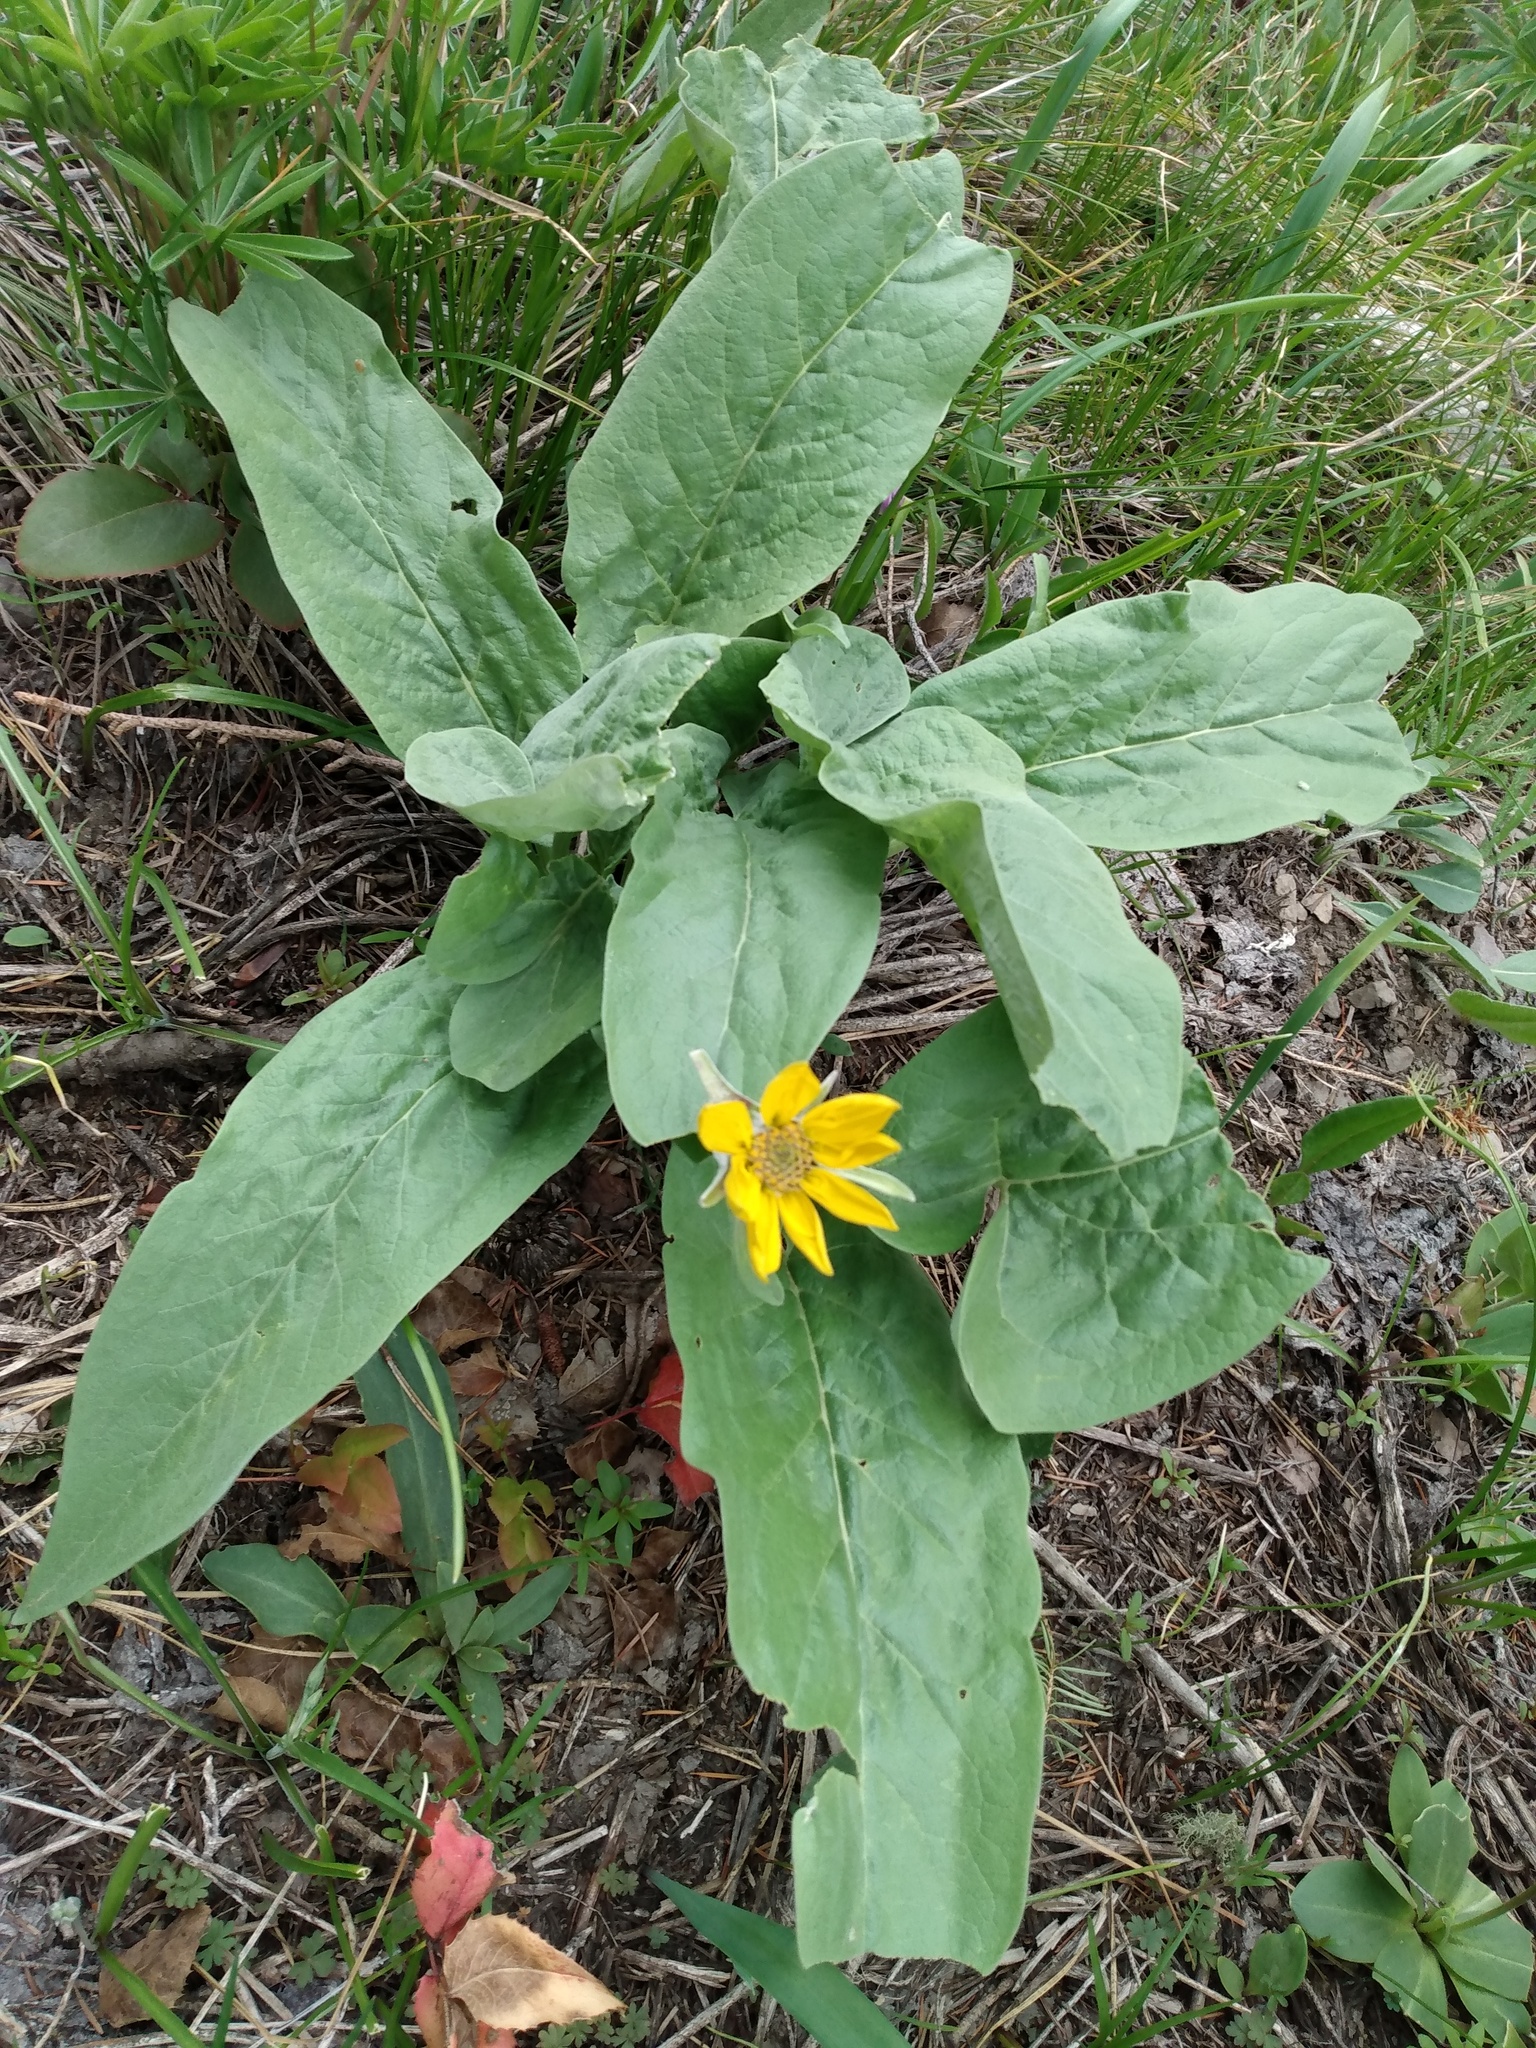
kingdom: Plantae
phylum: Tracheophyta
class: Magnoliopsida
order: Asterales
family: Asteraceae
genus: Wyethia
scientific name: Wyethia sagittata
